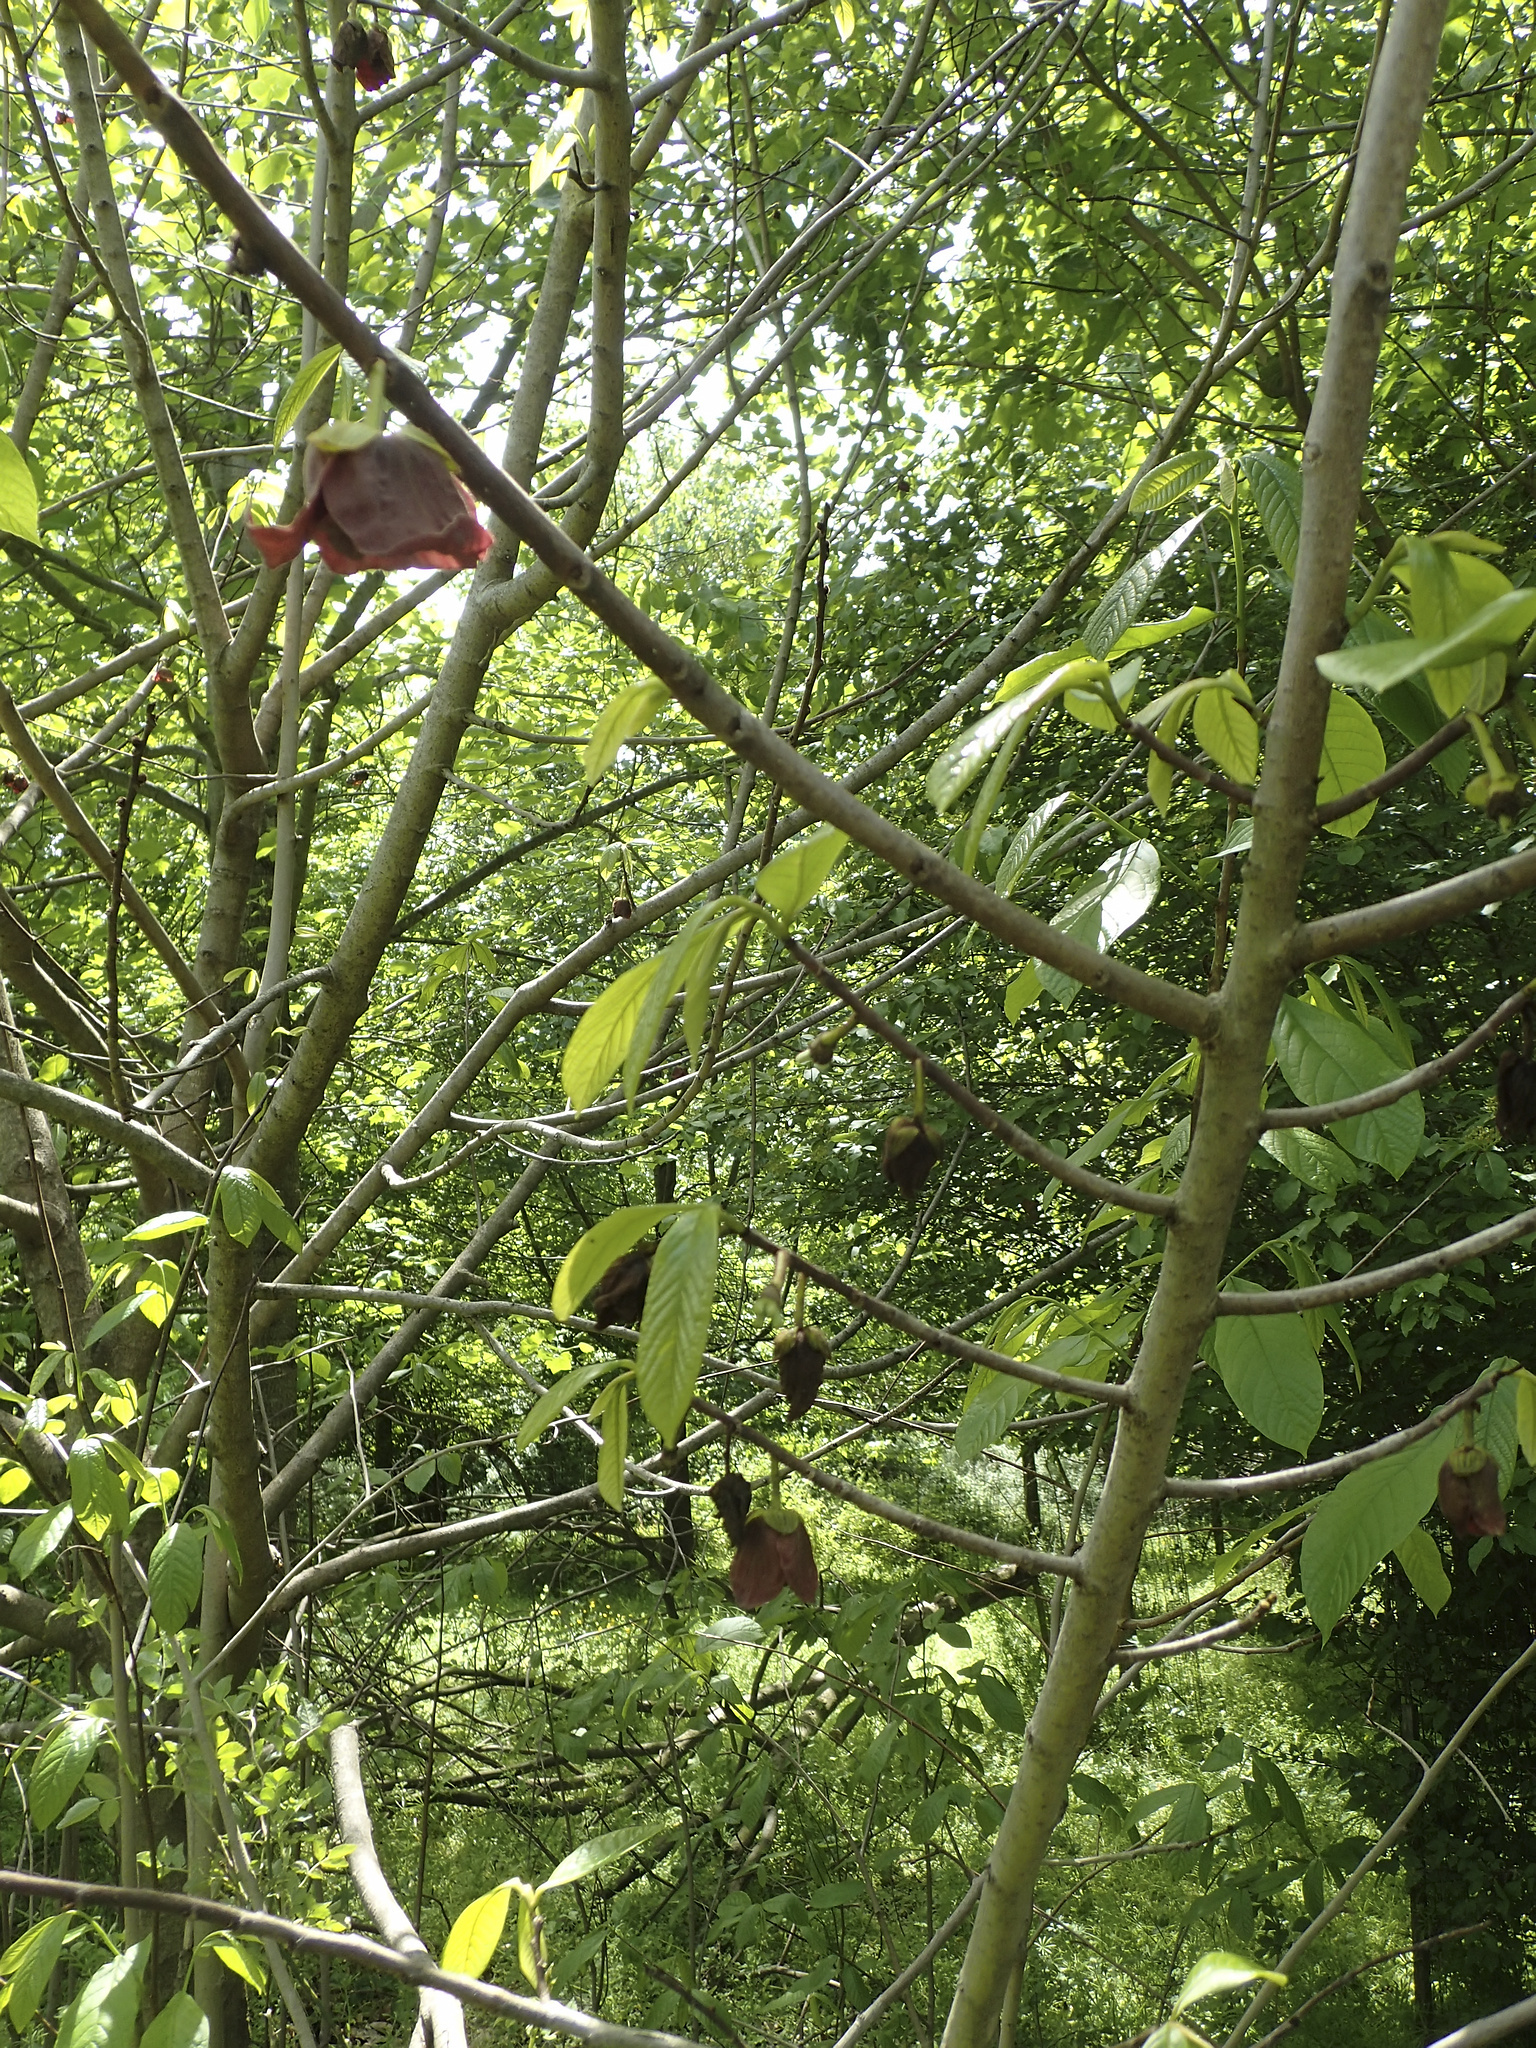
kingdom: Plantae
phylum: Tracheophyta
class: Magnoliopsida
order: Magnoliales
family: Annonaceae
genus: Asimina
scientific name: Asimina triloba
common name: Dog-banana
